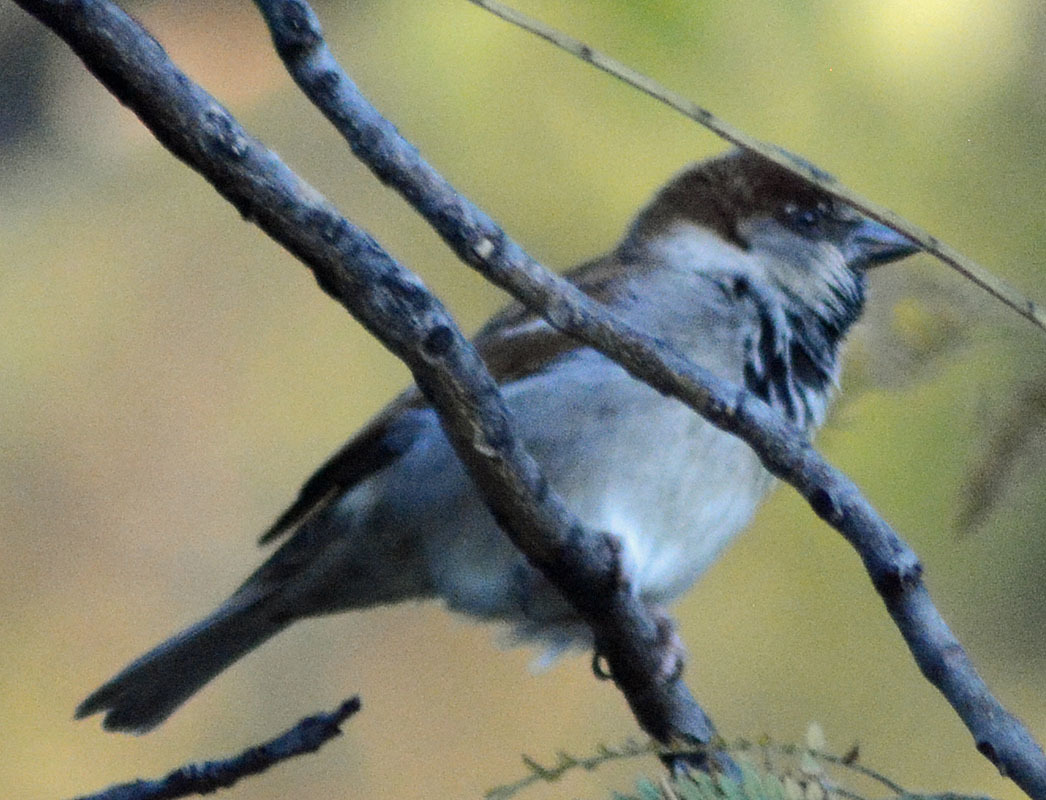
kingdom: Animalia
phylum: Chordata
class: Aves
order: Passeriformes
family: Passeridae
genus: Passer
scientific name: Passer domesticus
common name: House sparrow
